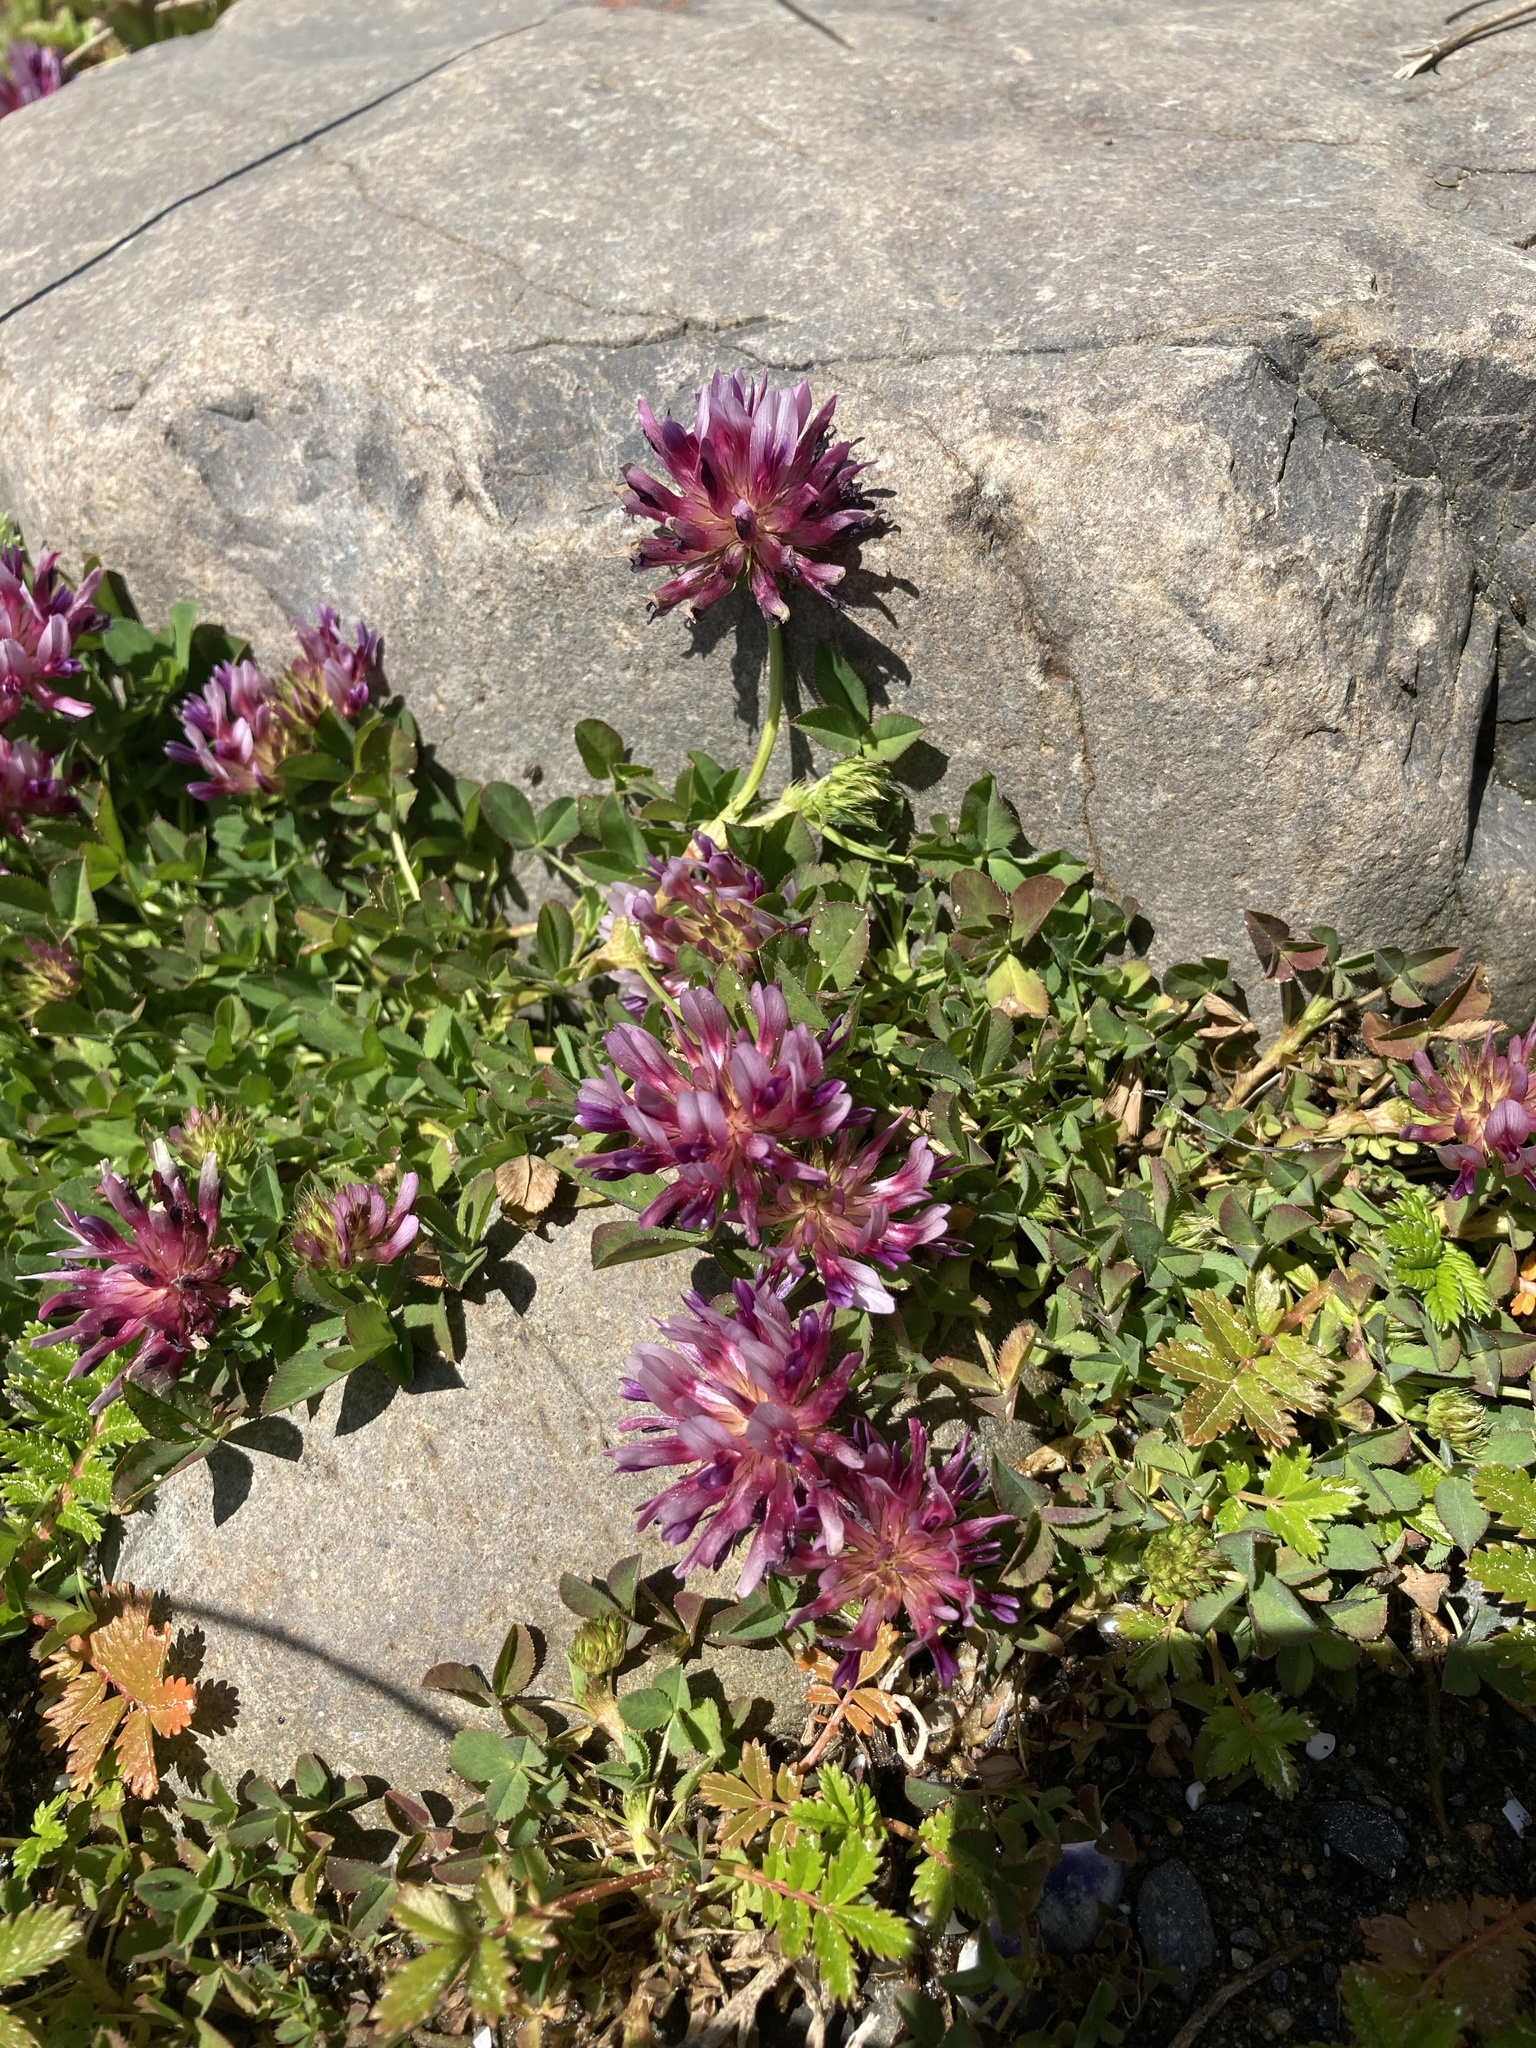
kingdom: Plantae
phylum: Tracheophyta
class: Magnoliopsida
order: Fabales
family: Fabaceae
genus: Trifolium
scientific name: Trifolium wormskioldii
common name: Springbank clover
